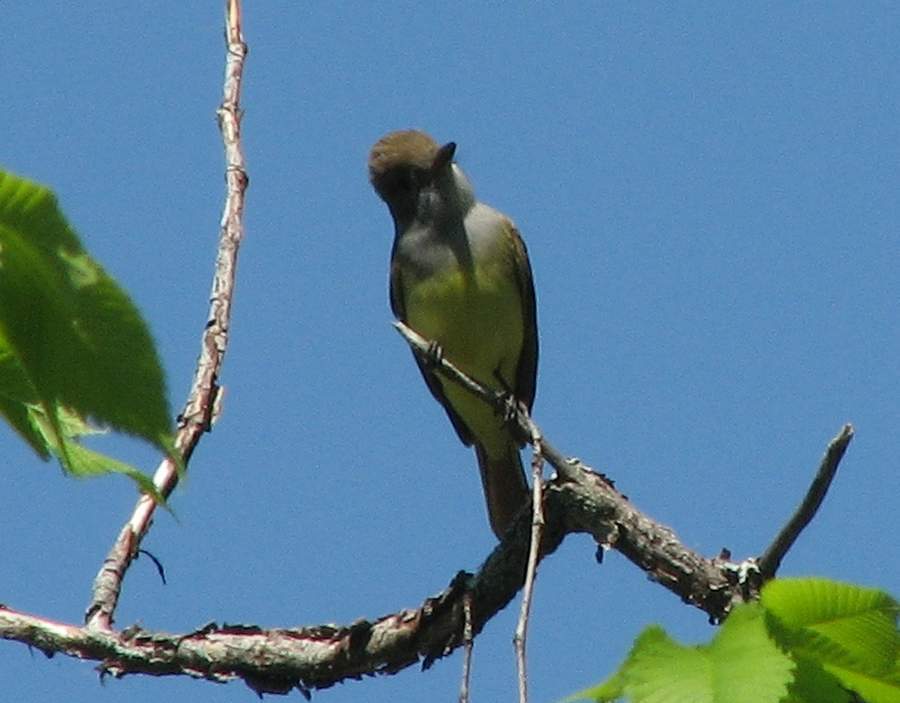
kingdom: Animalia
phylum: Chordata
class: Aves
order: Passeriformes
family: Tyrannidae
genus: Myiarchus
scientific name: Myiarchus crinitus
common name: Great crested flycatcher
